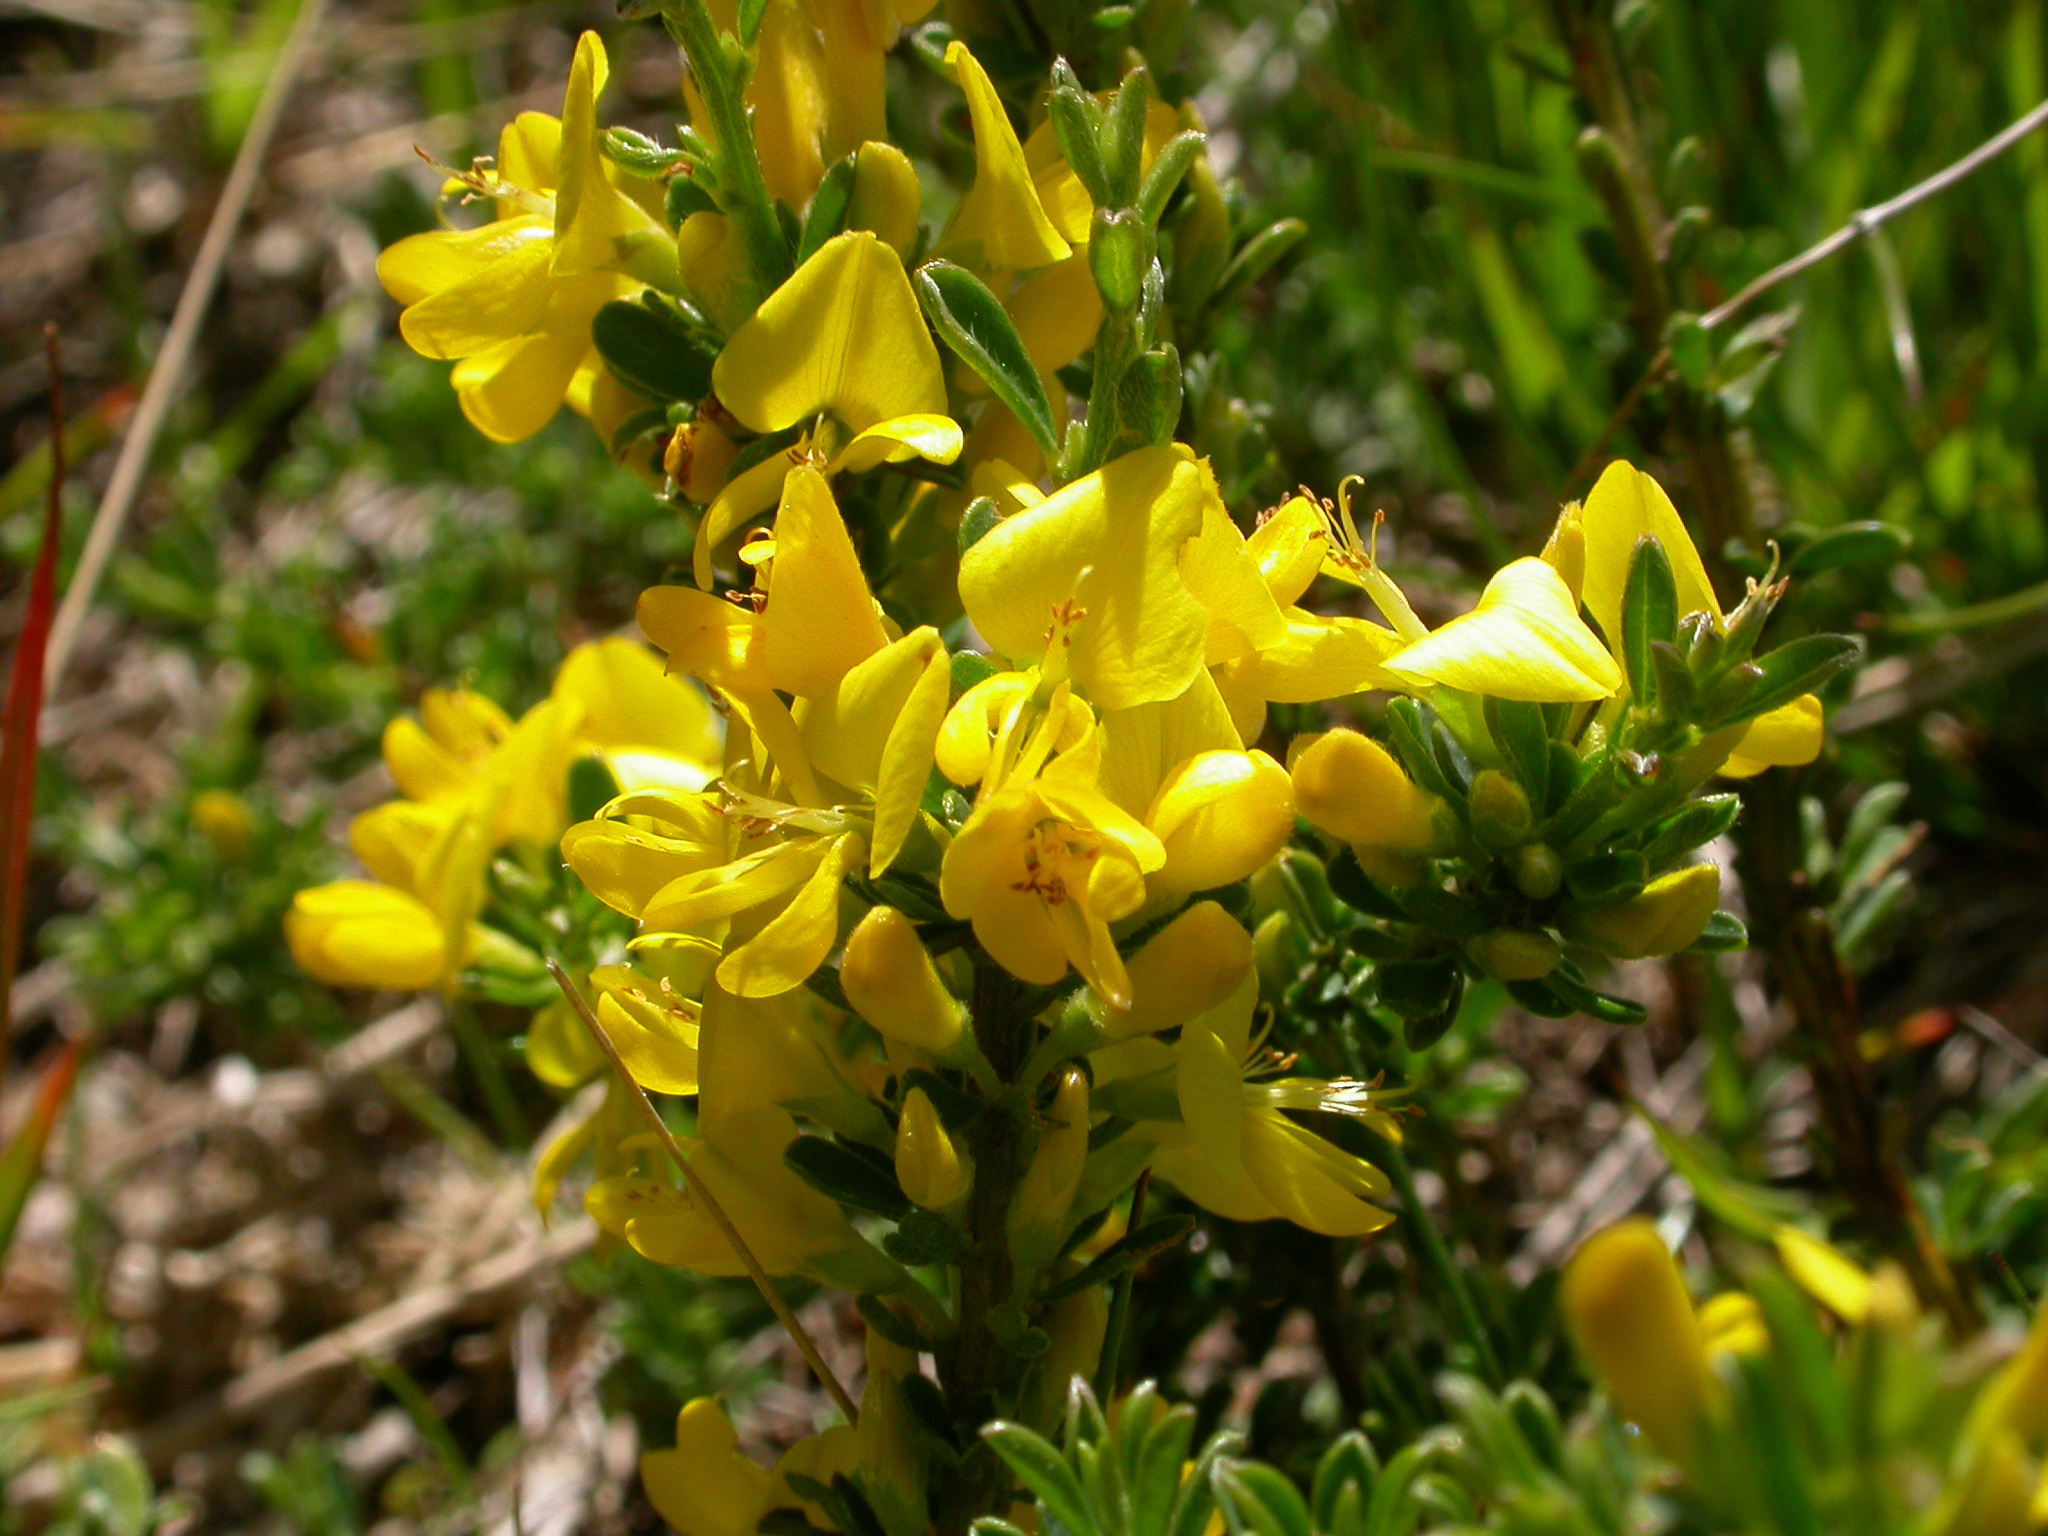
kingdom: Plantae
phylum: Tracheophyta
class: Magnoliopsida
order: Fabales
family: Fabaceae
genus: Genista
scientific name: Genista pilosa
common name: Hairy greenweed
